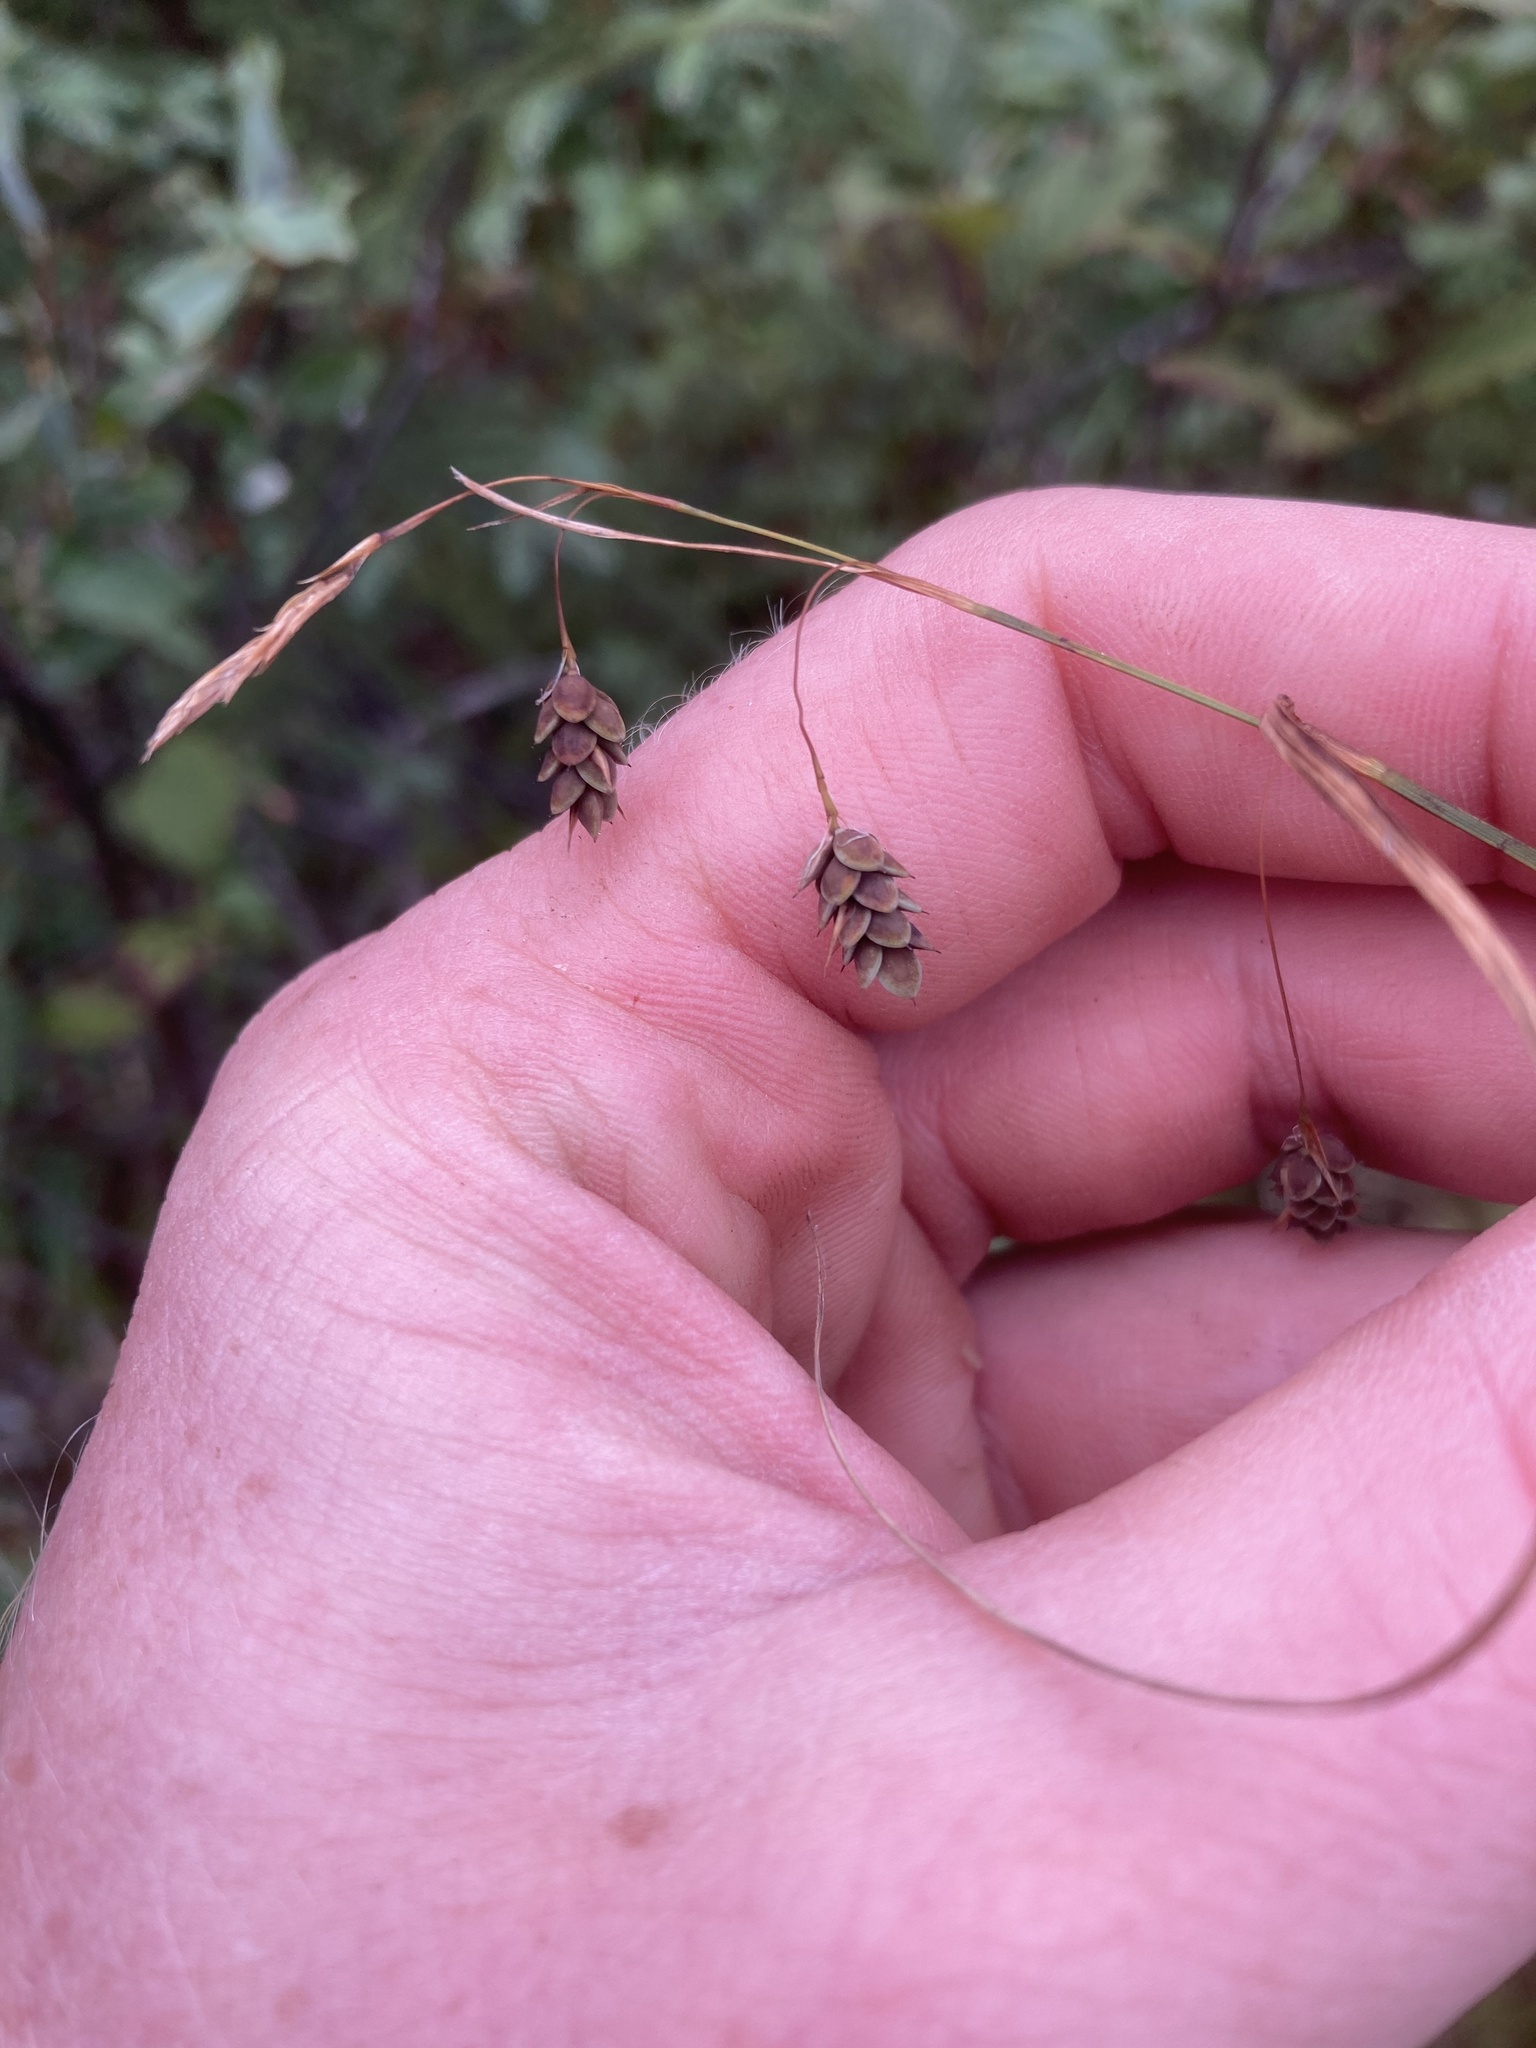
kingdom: Plantae
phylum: Tracheophyta
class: Liliopsida
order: Poales
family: Cyperaceae
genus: Carex
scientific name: Carex limosa
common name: Bog sedge
